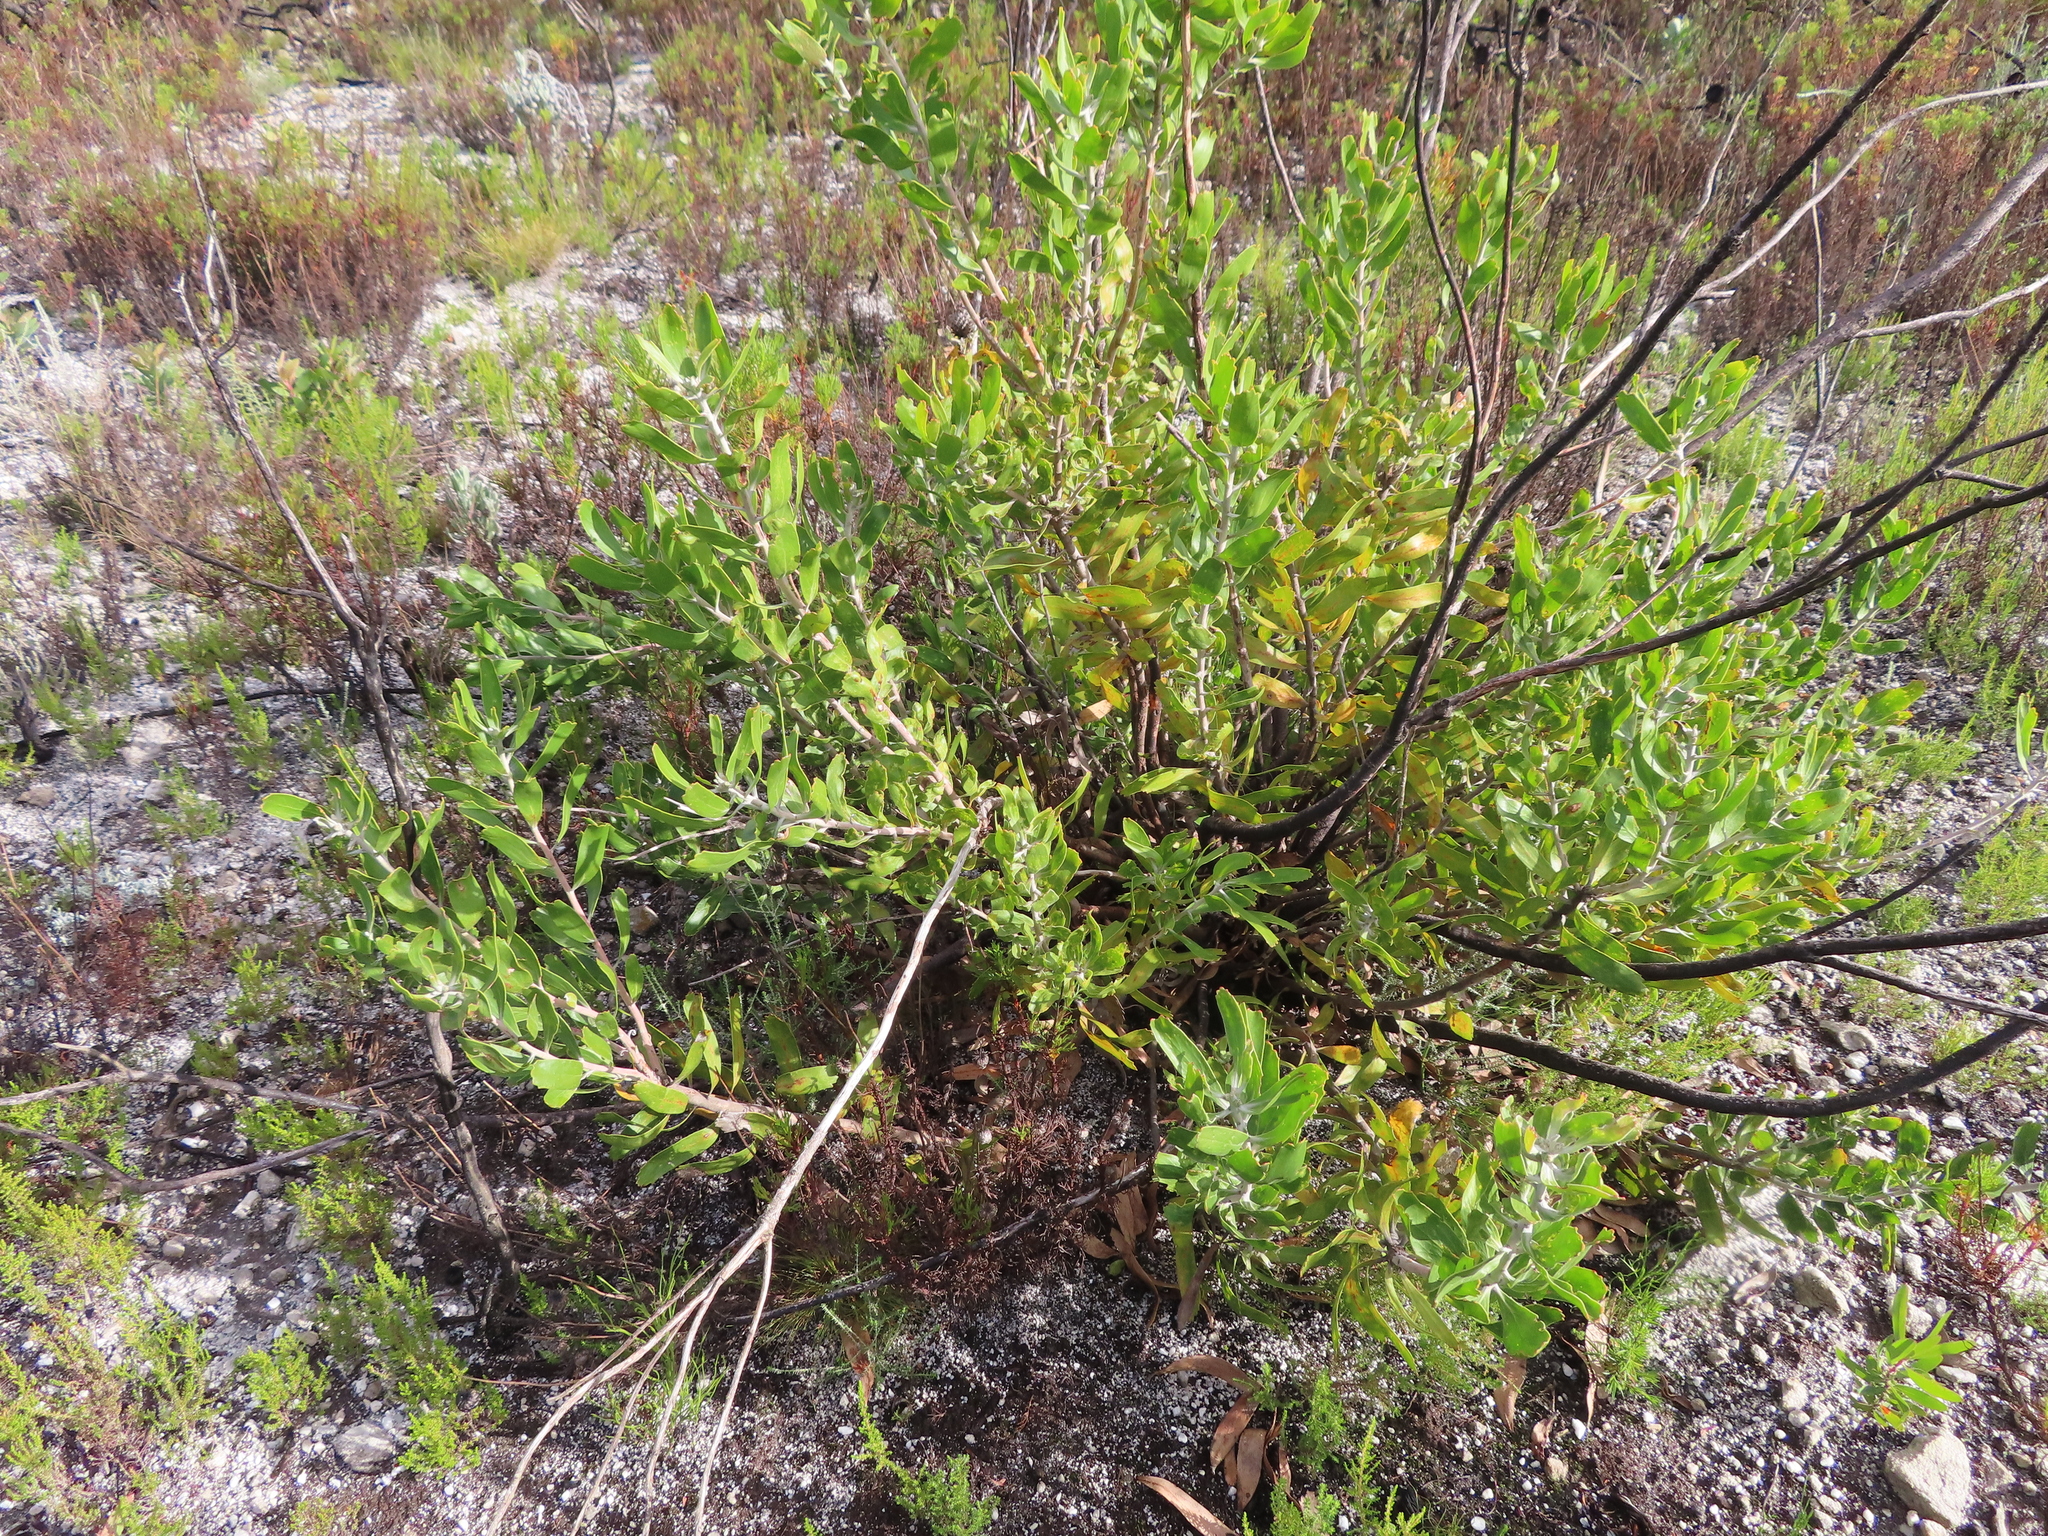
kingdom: Plantae
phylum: Tracheophyta
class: Magnoliopsida
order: Proteales
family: Proteaceae
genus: Leucospermum
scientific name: Leucospermum cuneiforme
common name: Common pincushion
